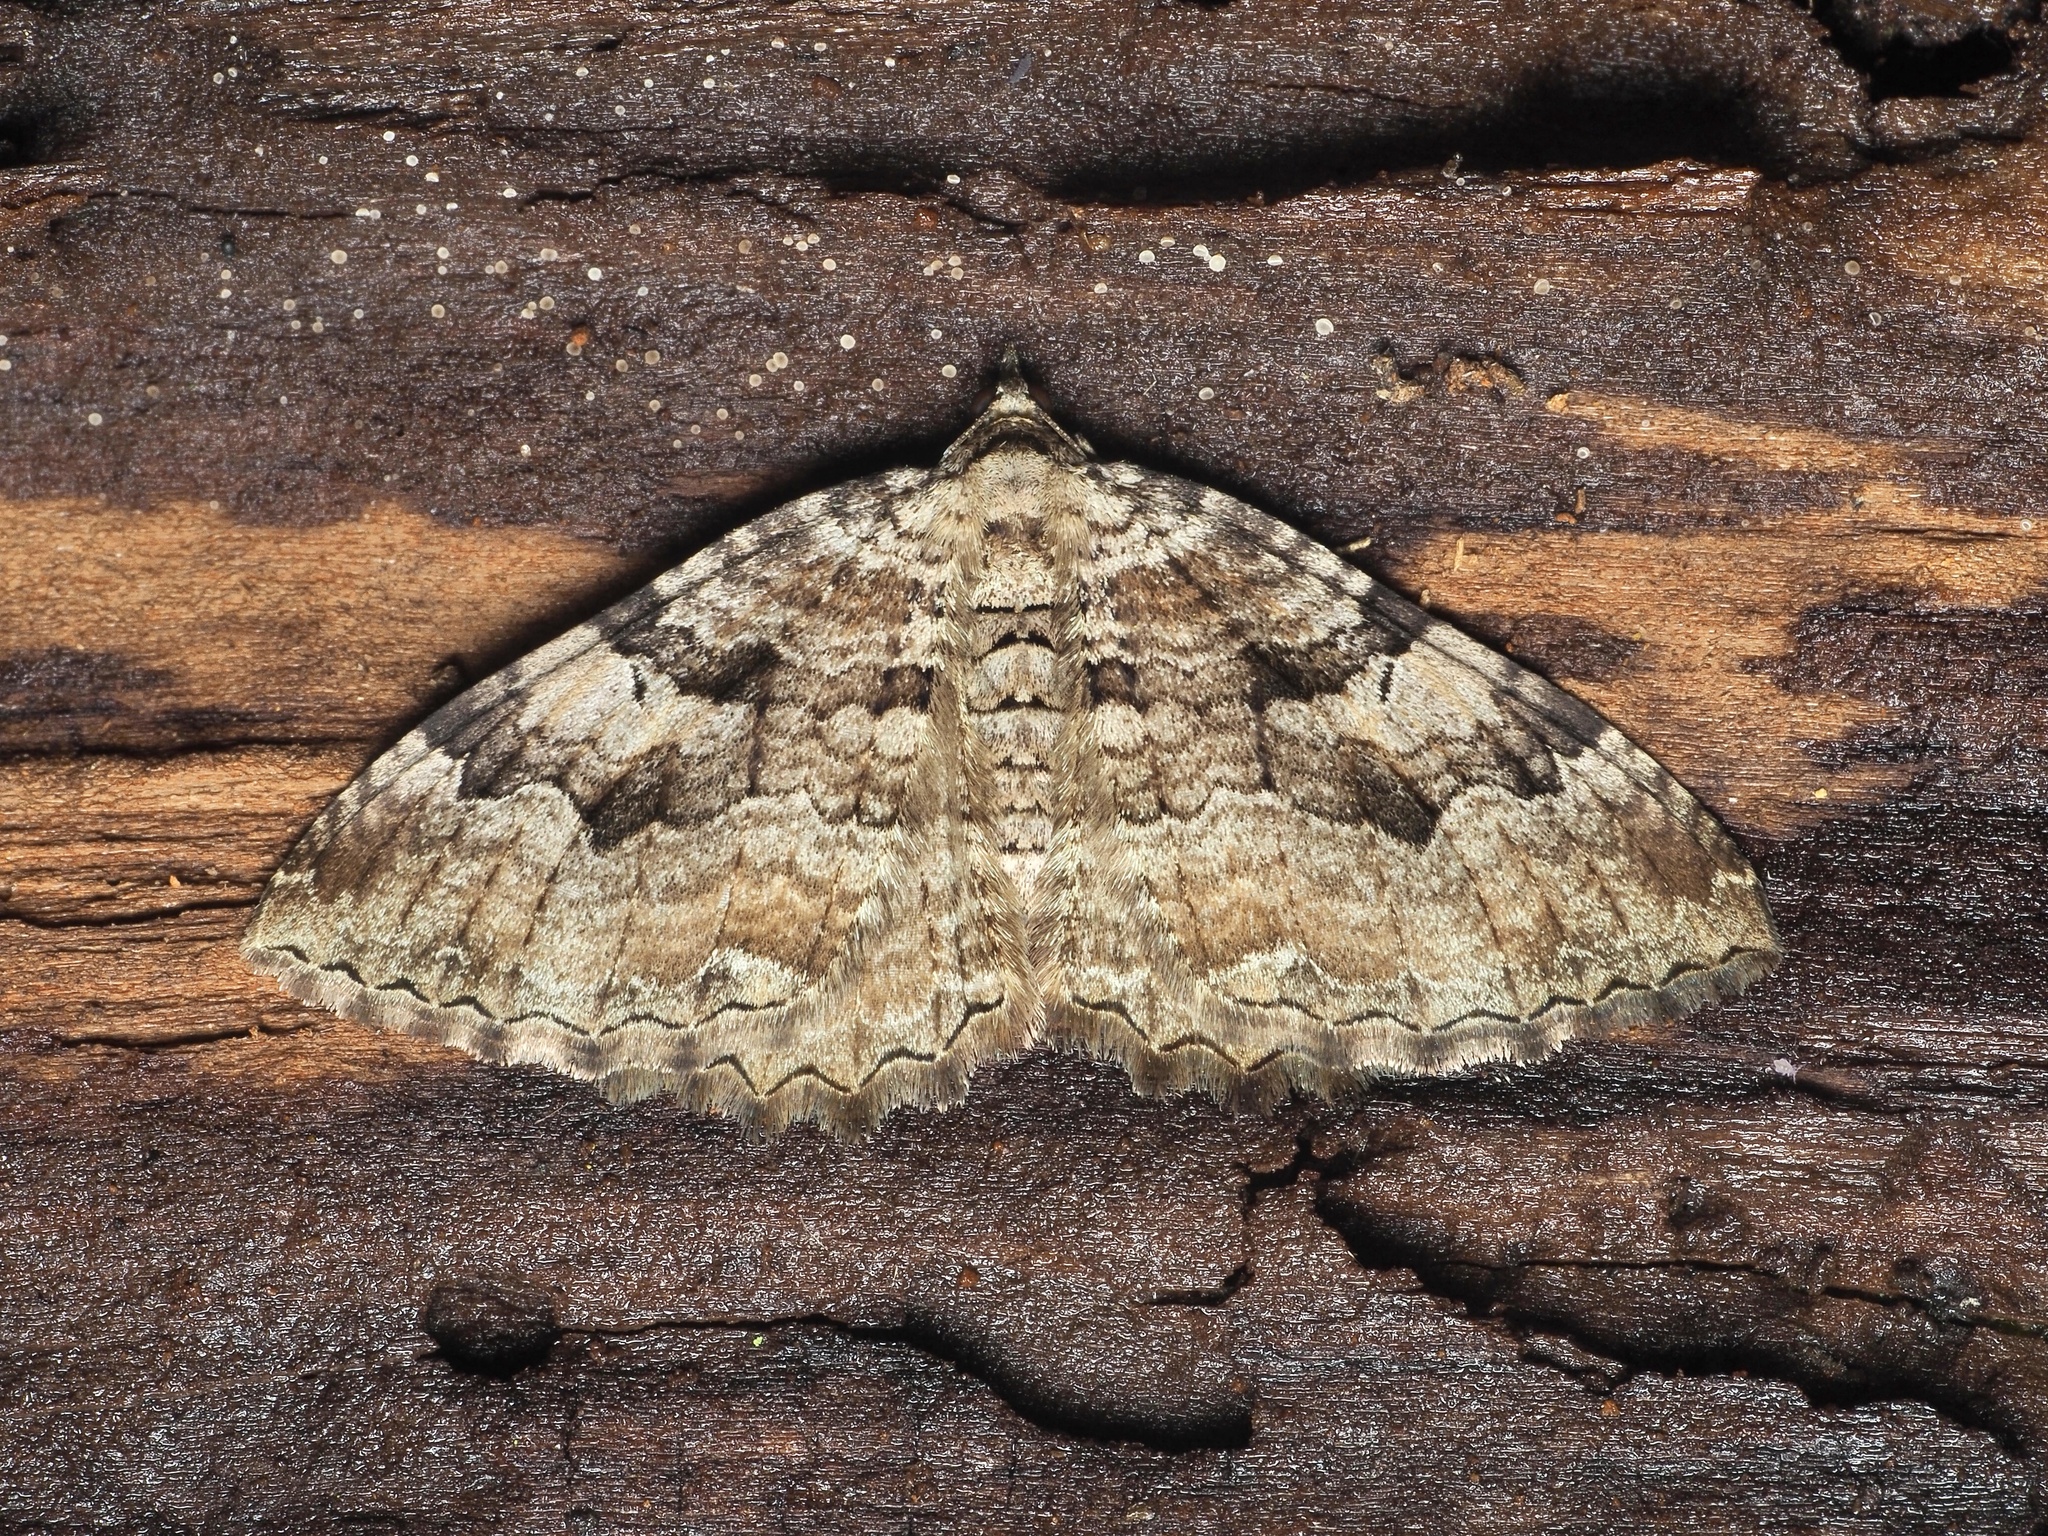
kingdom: Animalia
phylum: Arthropoda
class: Insecta
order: Lepidoptera
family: Geometridae
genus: Rheumaptera
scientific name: Rheumaptera Hydria cervinalis
